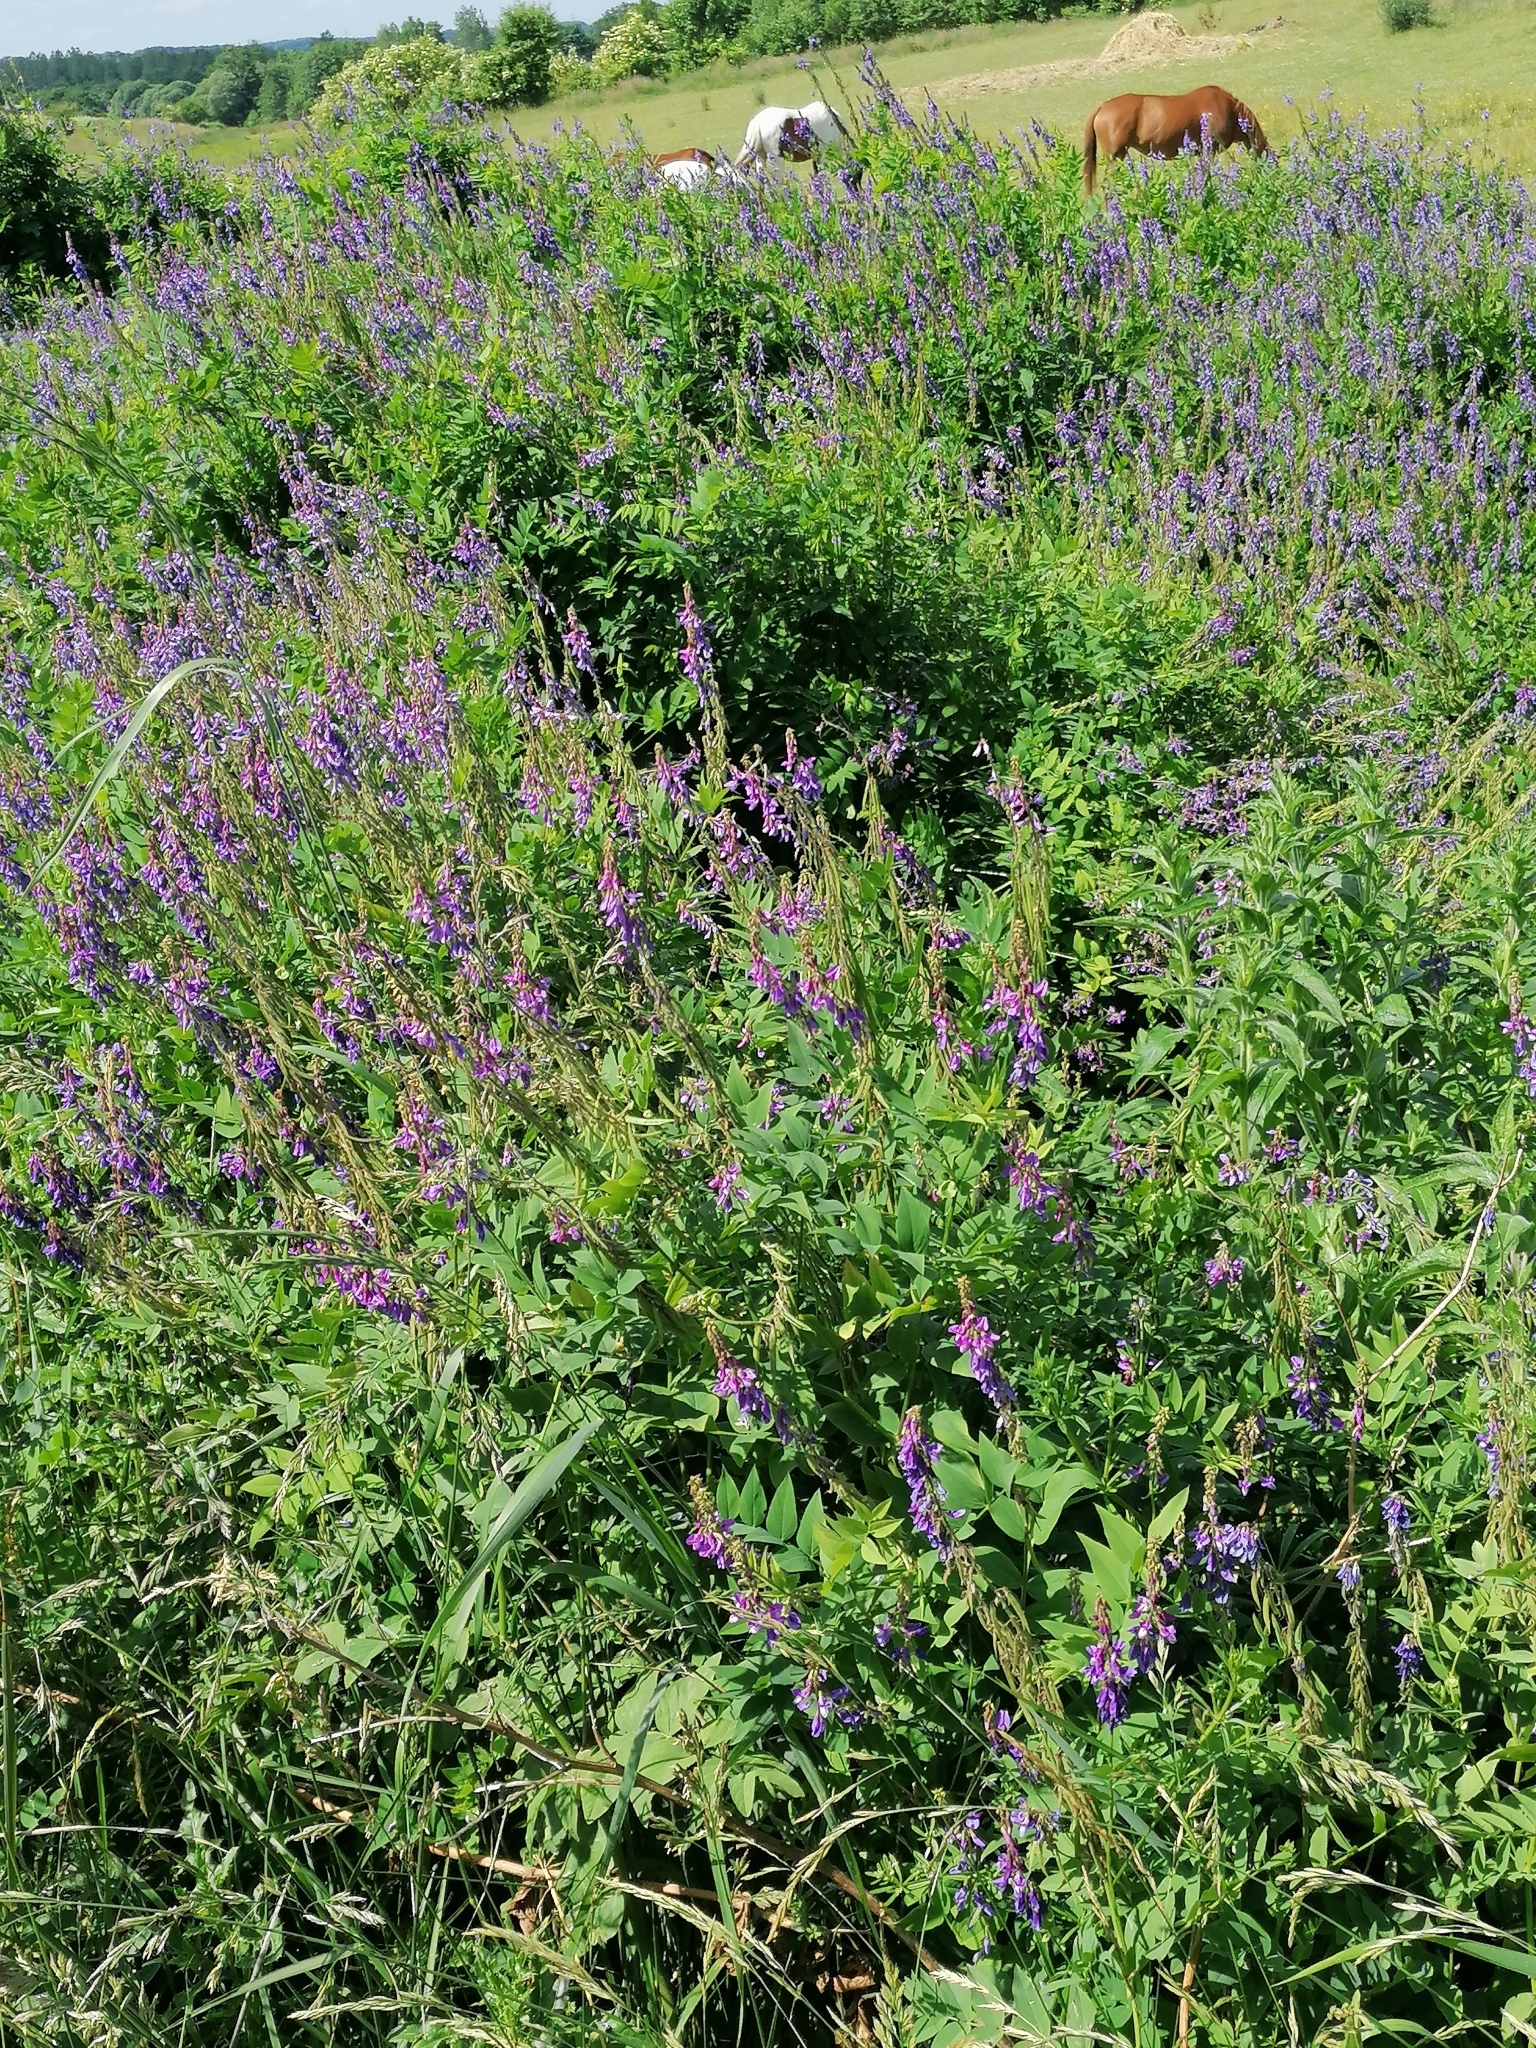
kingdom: Plantae
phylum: Tracheophyta
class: Magnoliopsida
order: Fabales
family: Fabaceae
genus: Galega
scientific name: Galega orientalis
